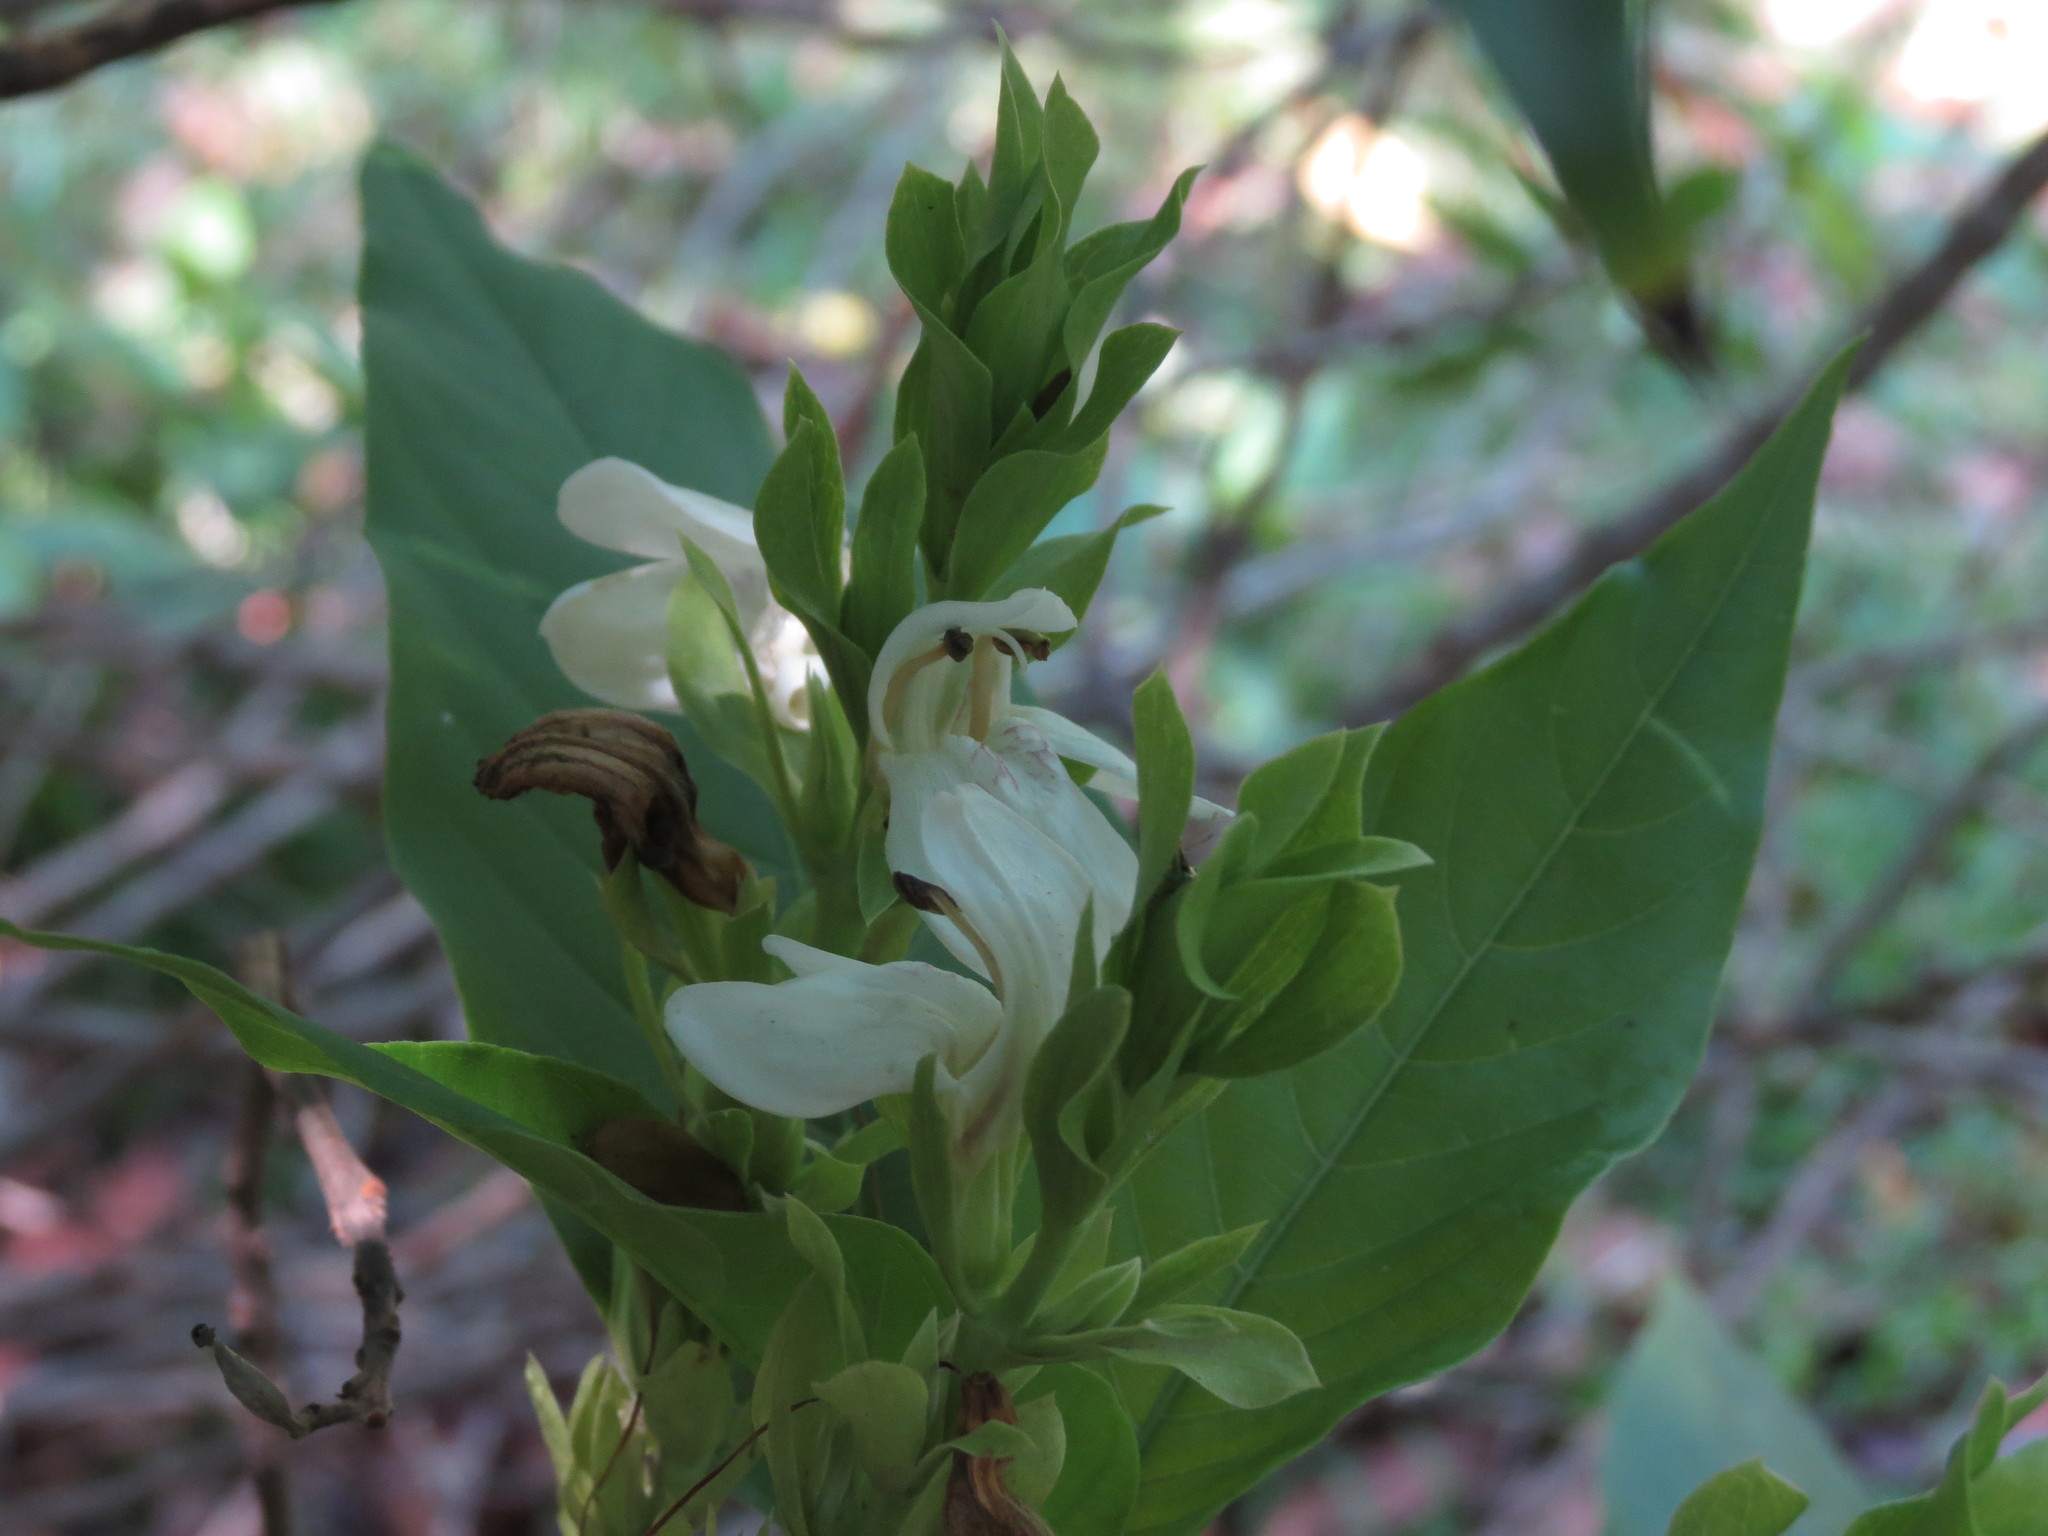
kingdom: Plantae
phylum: Tracheophyta
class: Magnoliopsida
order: Lamiales
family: Acanthaceae
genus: Justicia
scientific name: Justicia adhatoda
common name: Malabar nut
